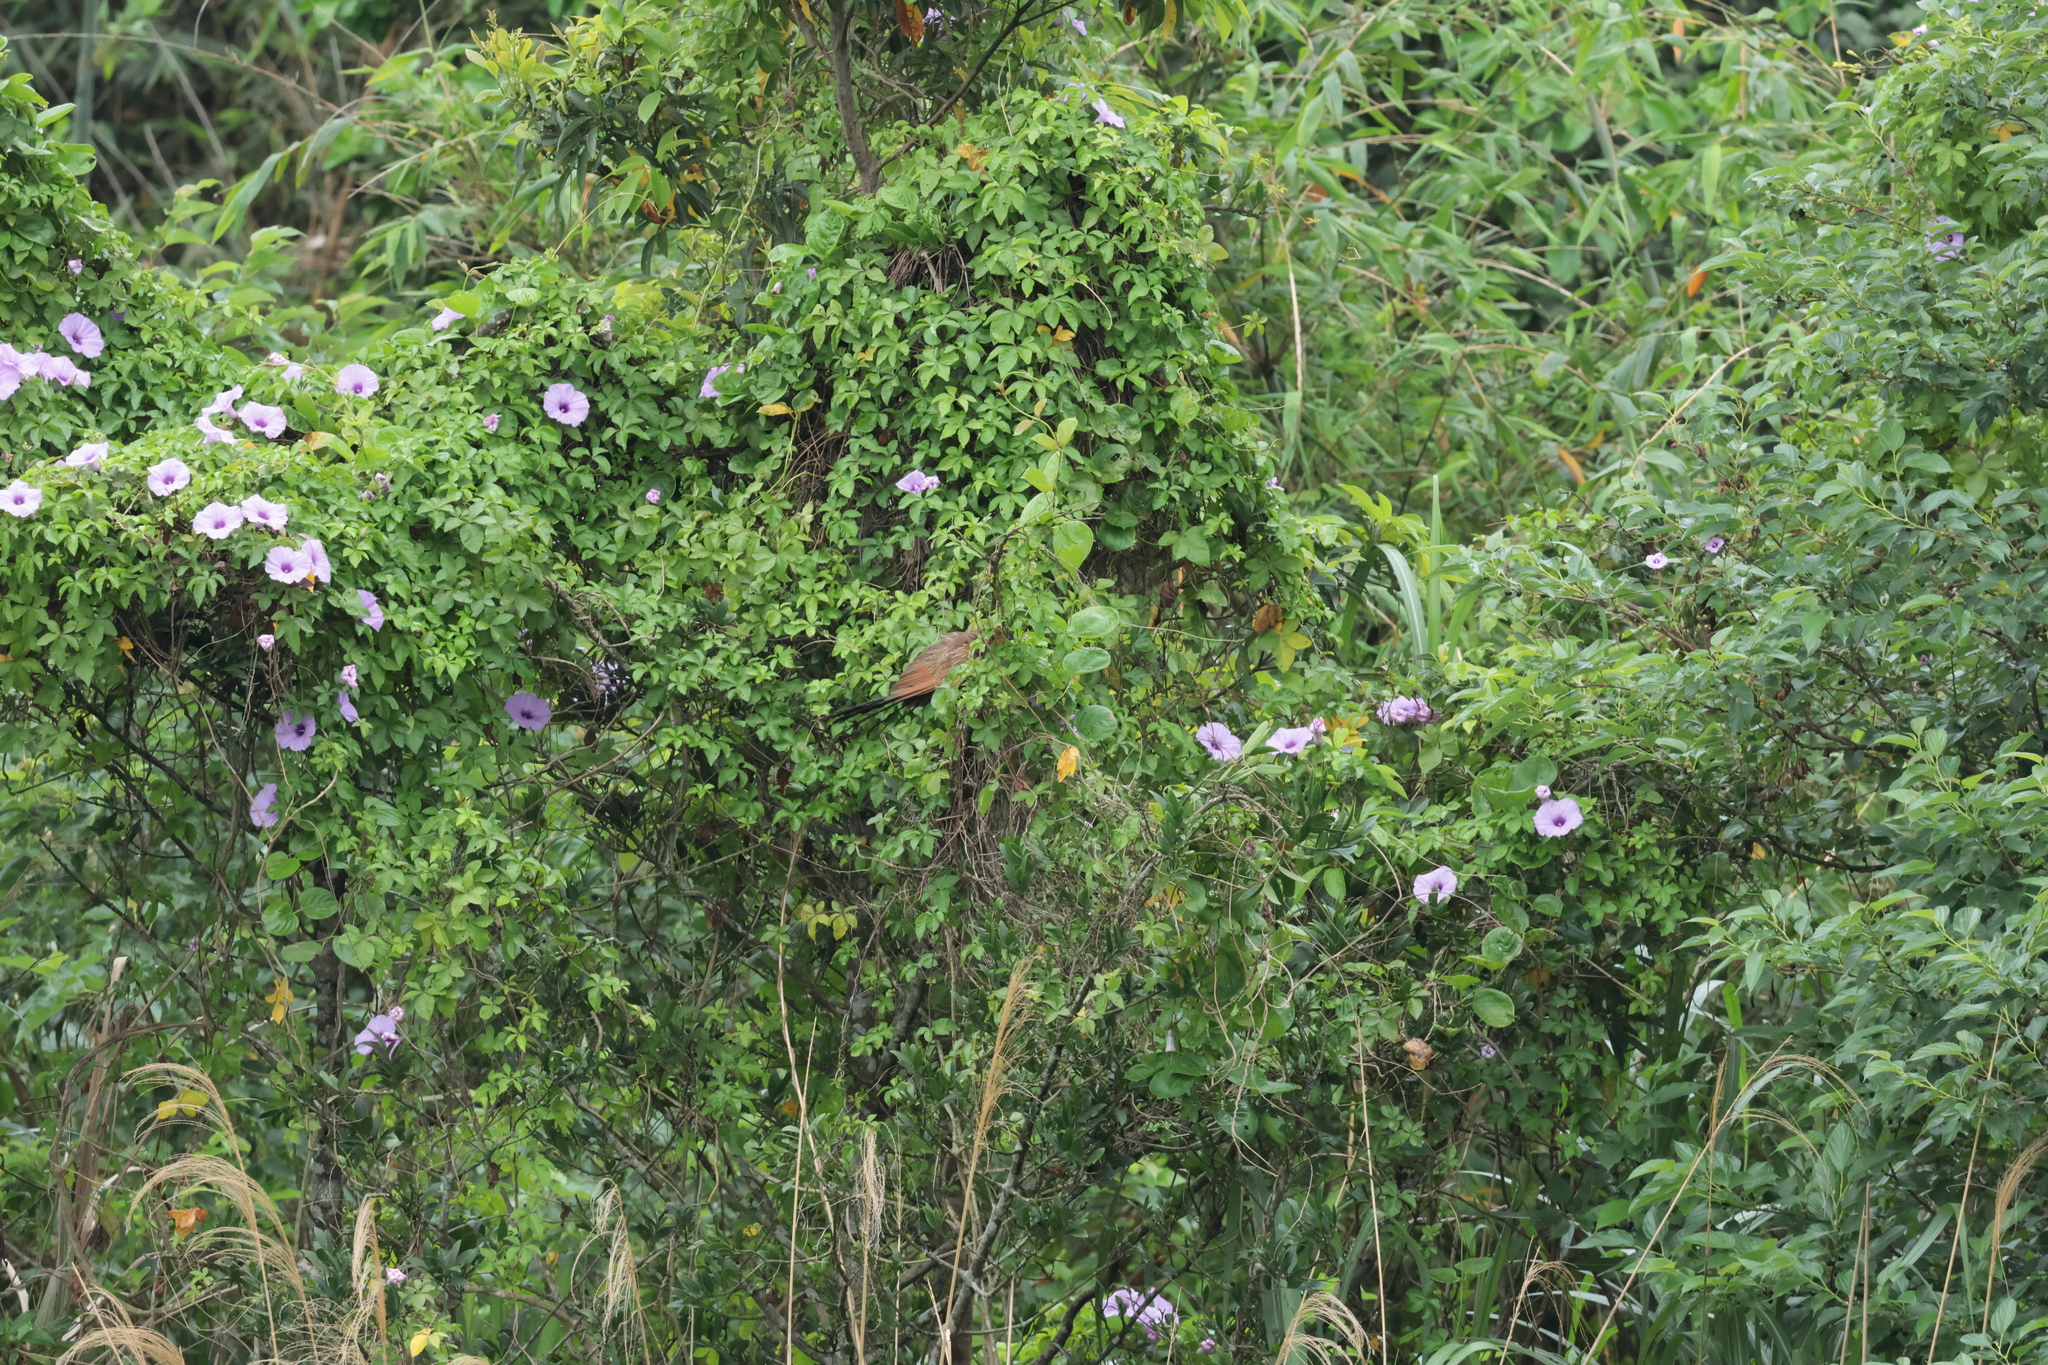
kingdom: Animalia
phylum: Chordata
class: Aves
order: Cuculiformes
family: Cuculidae
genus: Centropus
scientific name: Centropus bengalensis
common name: Lesser coucal
